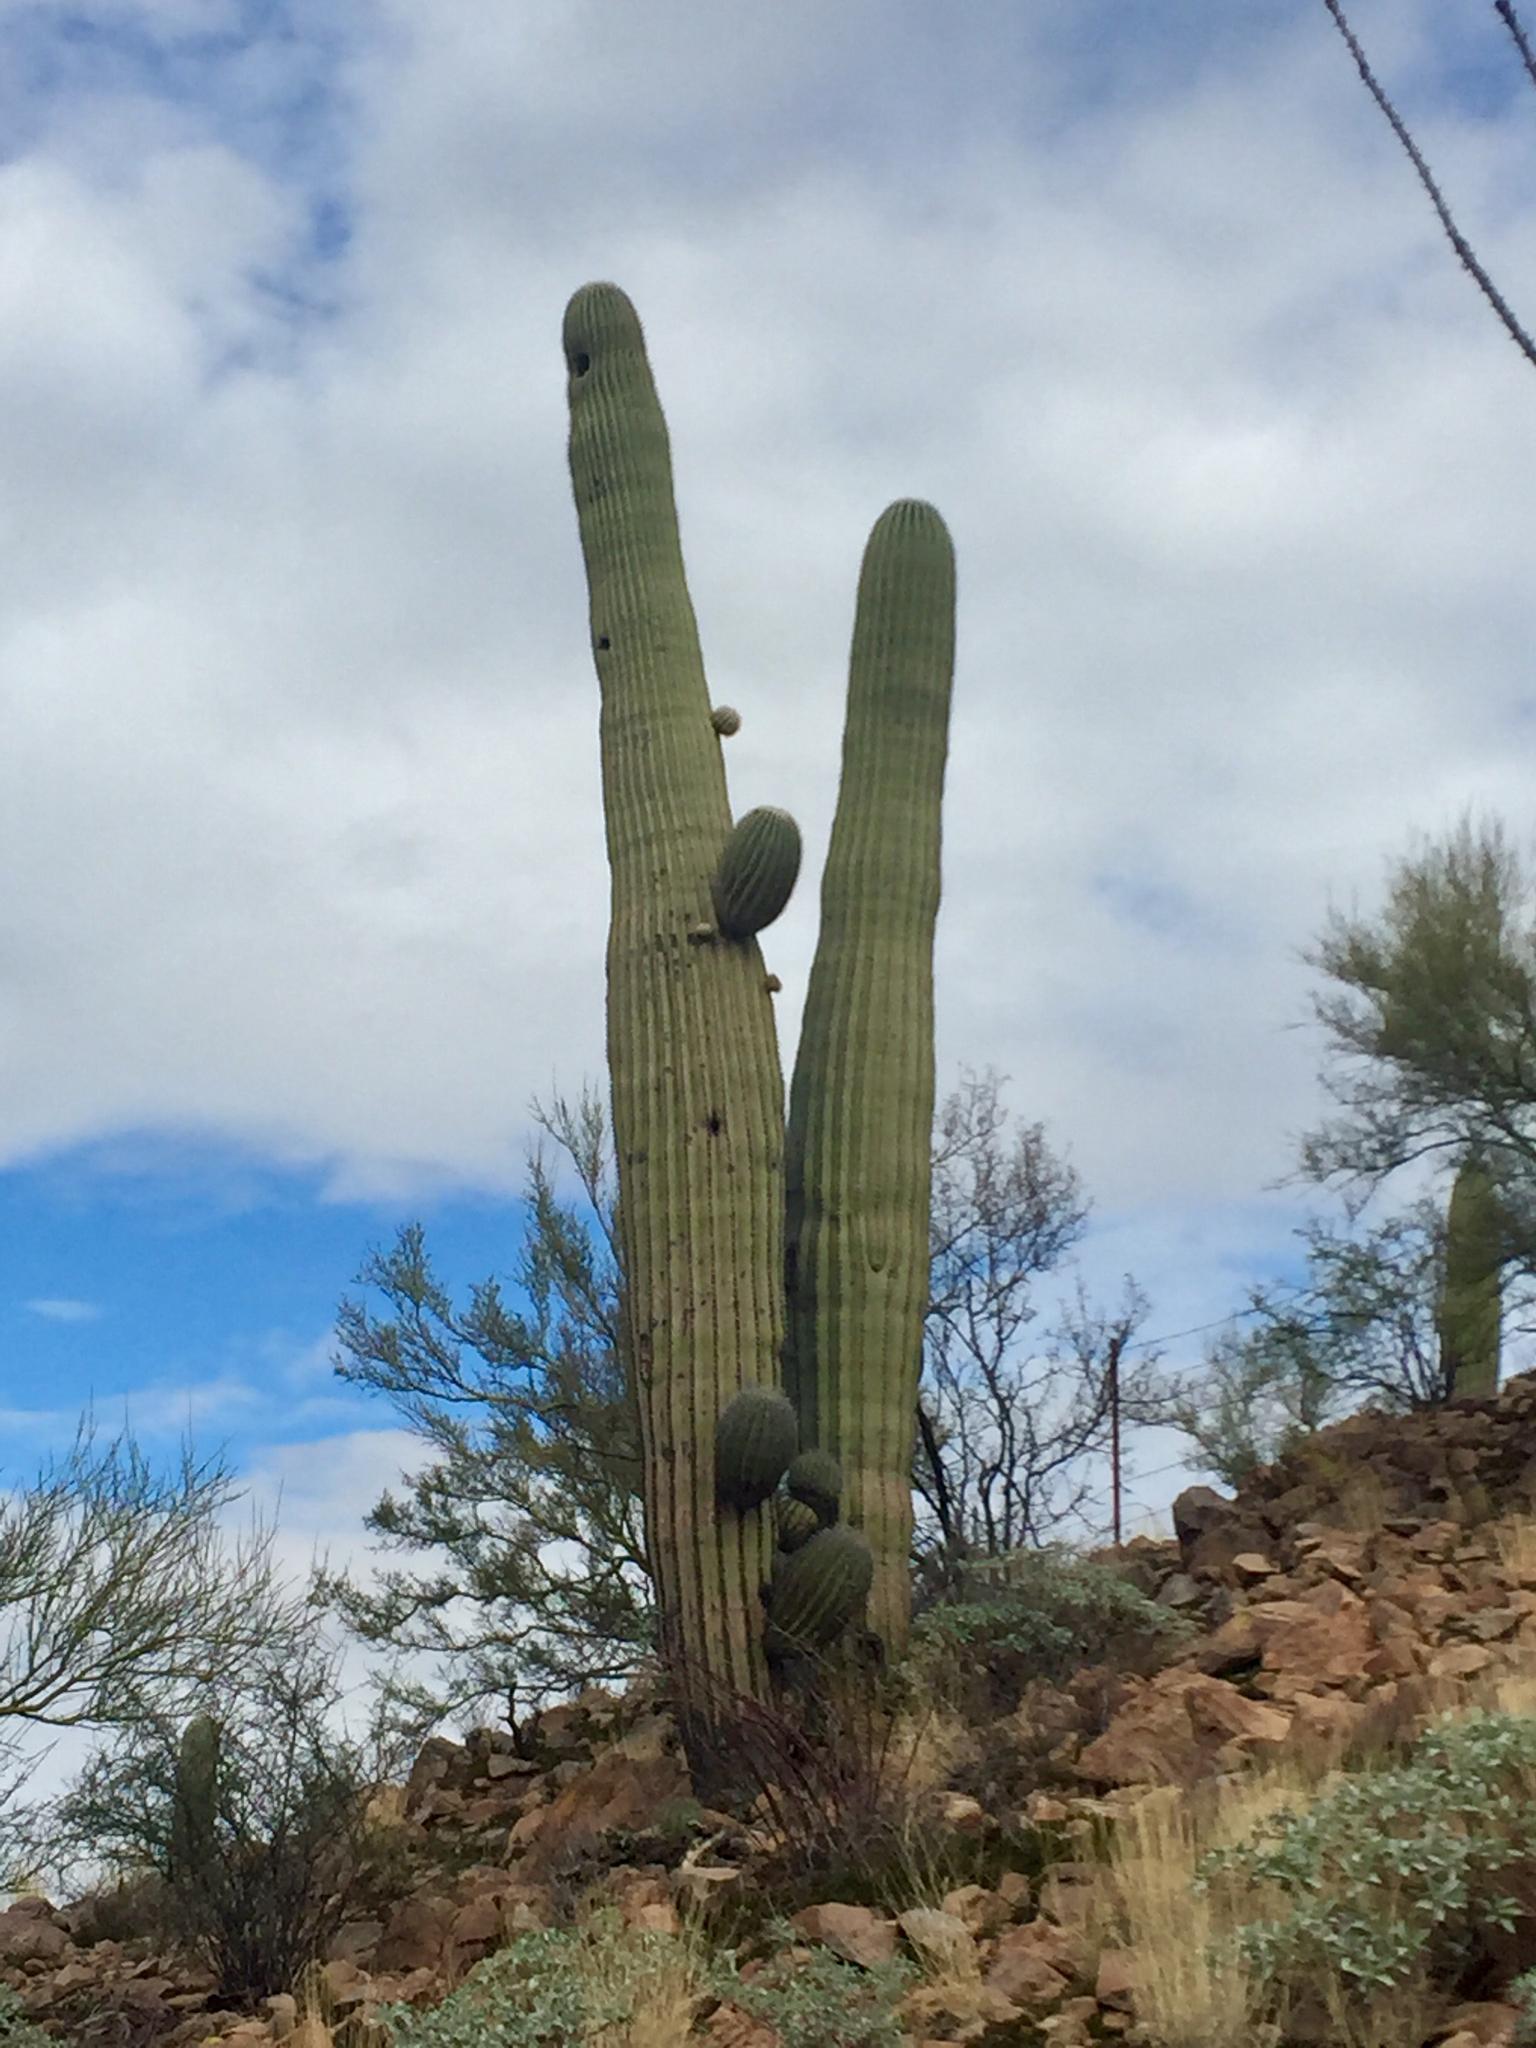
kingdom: Plantae
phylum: Tracheophyta
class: Magnoliopsida
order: Caryophyllales
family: Cactaceae
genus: Carnegiea
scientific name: Carnegiea gigantea
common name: Saguaro
